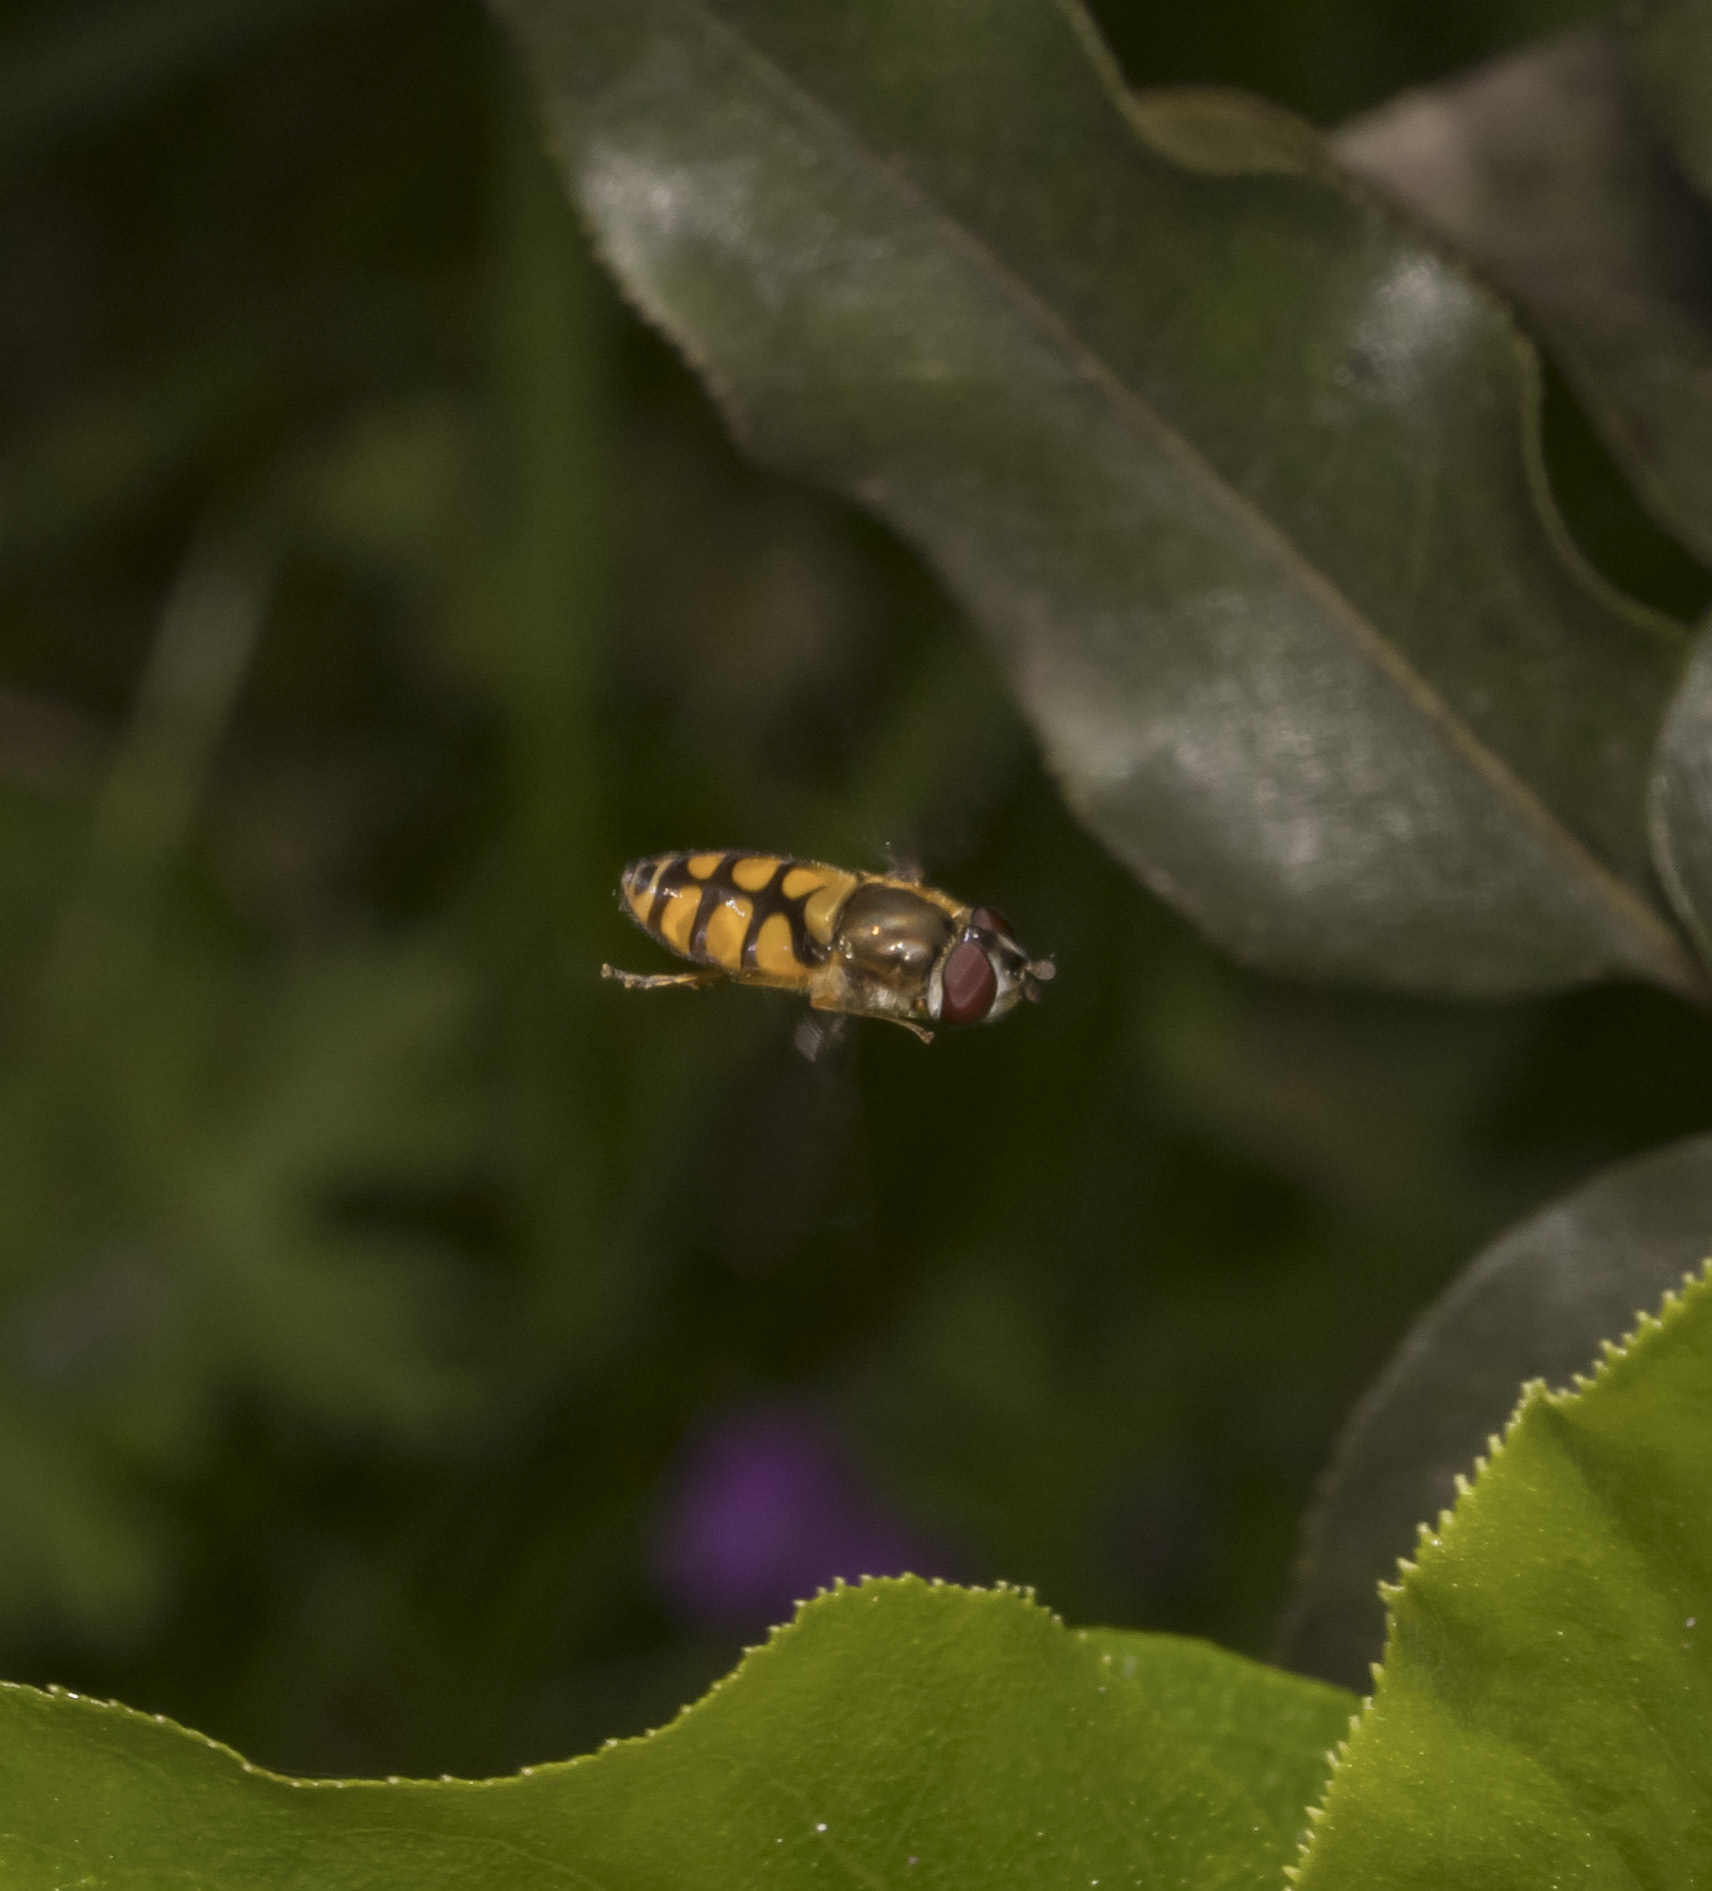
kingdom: Animalia
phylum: Arthropoda
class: Insecta
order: Diptera
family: Syrphidae
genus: Syrphus
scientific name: Syrphus octomaculatus
